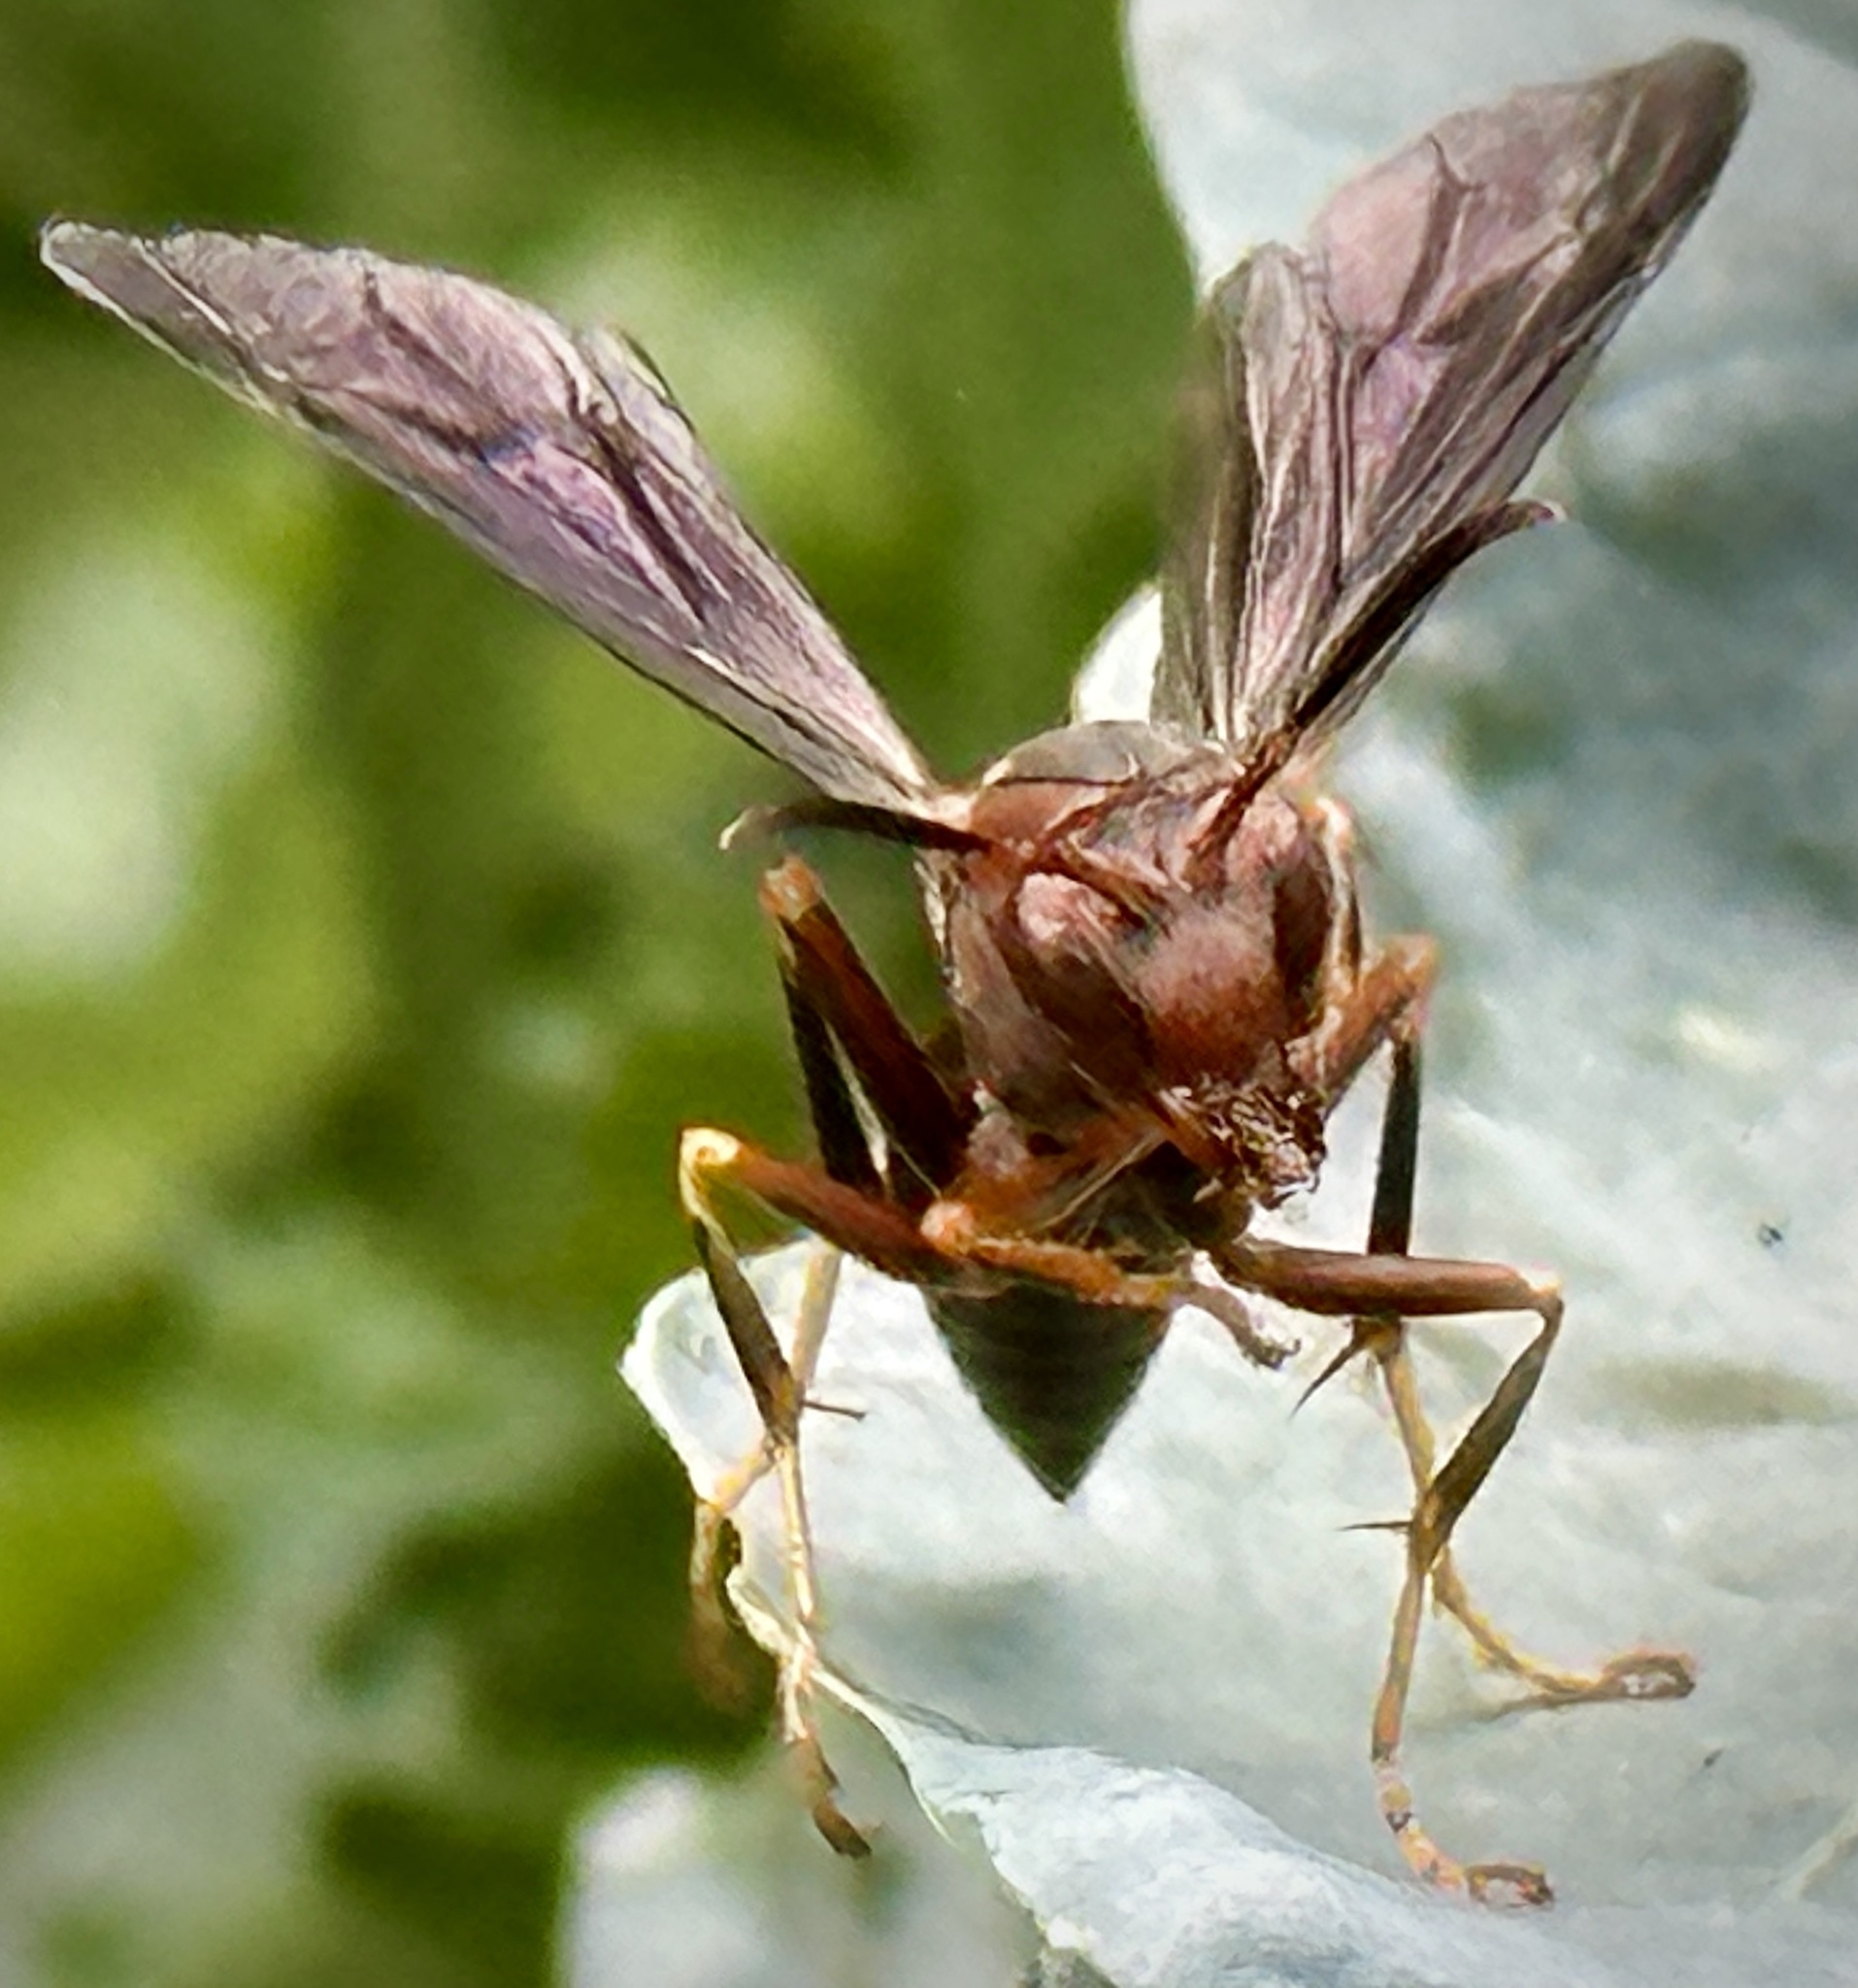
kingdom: Animalia
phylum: Arthropoda
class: Insecta
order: Hymenoptera
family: Eumenidae
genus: Polistes
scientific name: Polistes metricus
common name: Metric paper wasp
